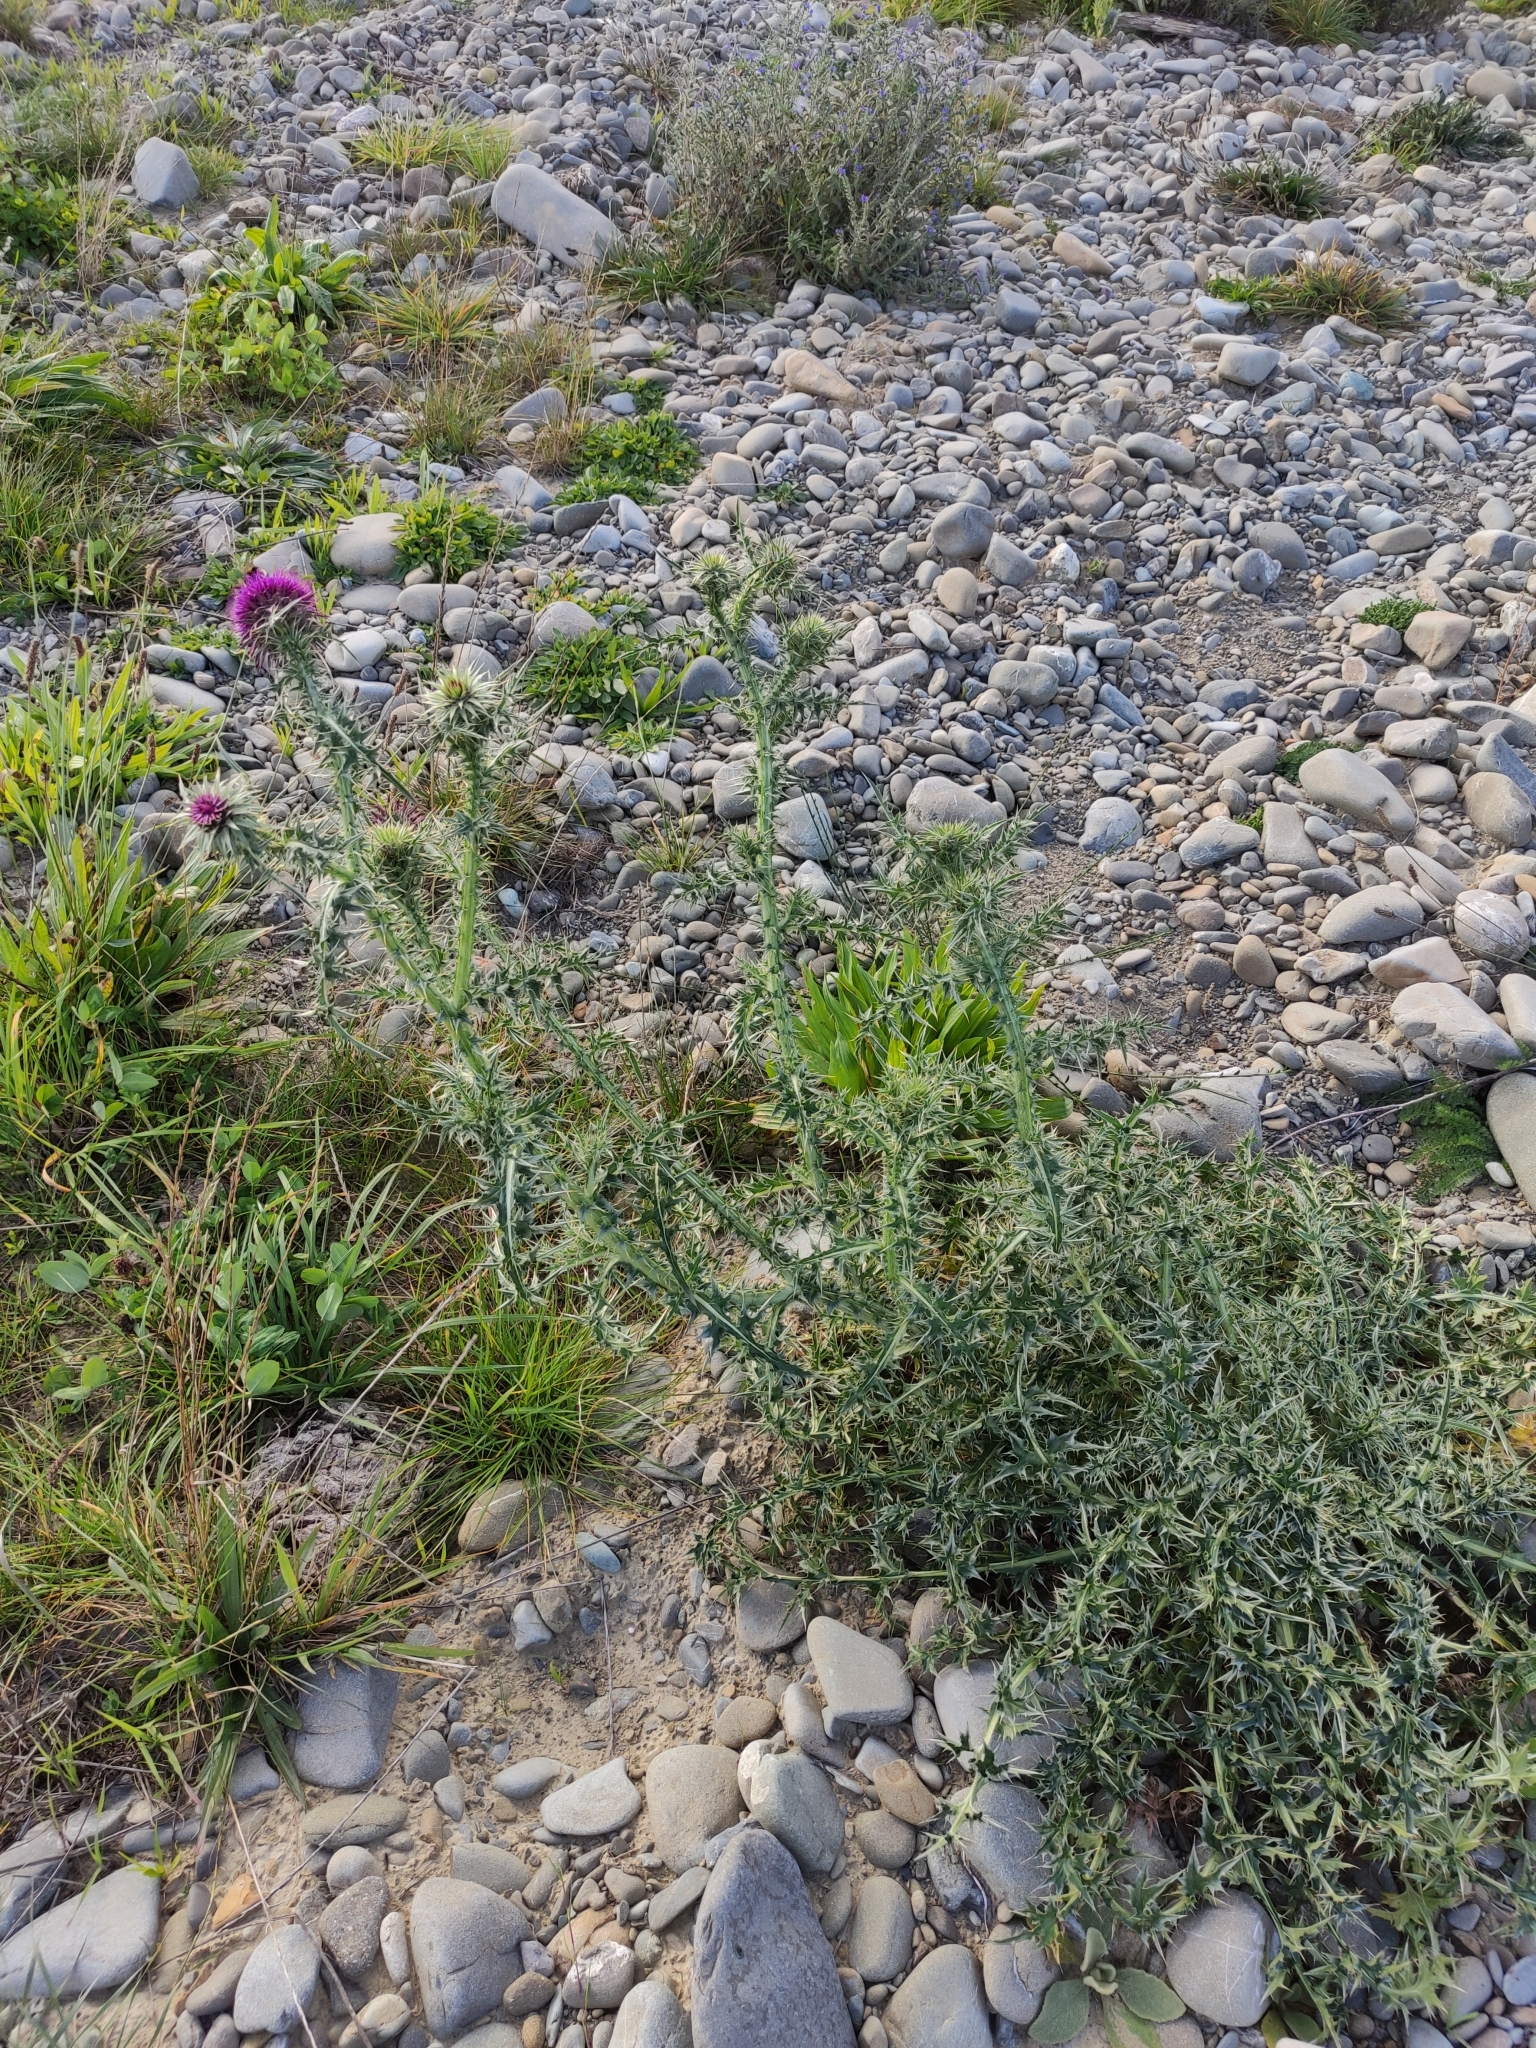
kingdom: Plantae
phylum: Tracheophyta
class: Magnoliopsida
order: Asterales
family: Asteraceae
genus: Carduus
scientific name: Carduus nutans
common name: Musk thistle
